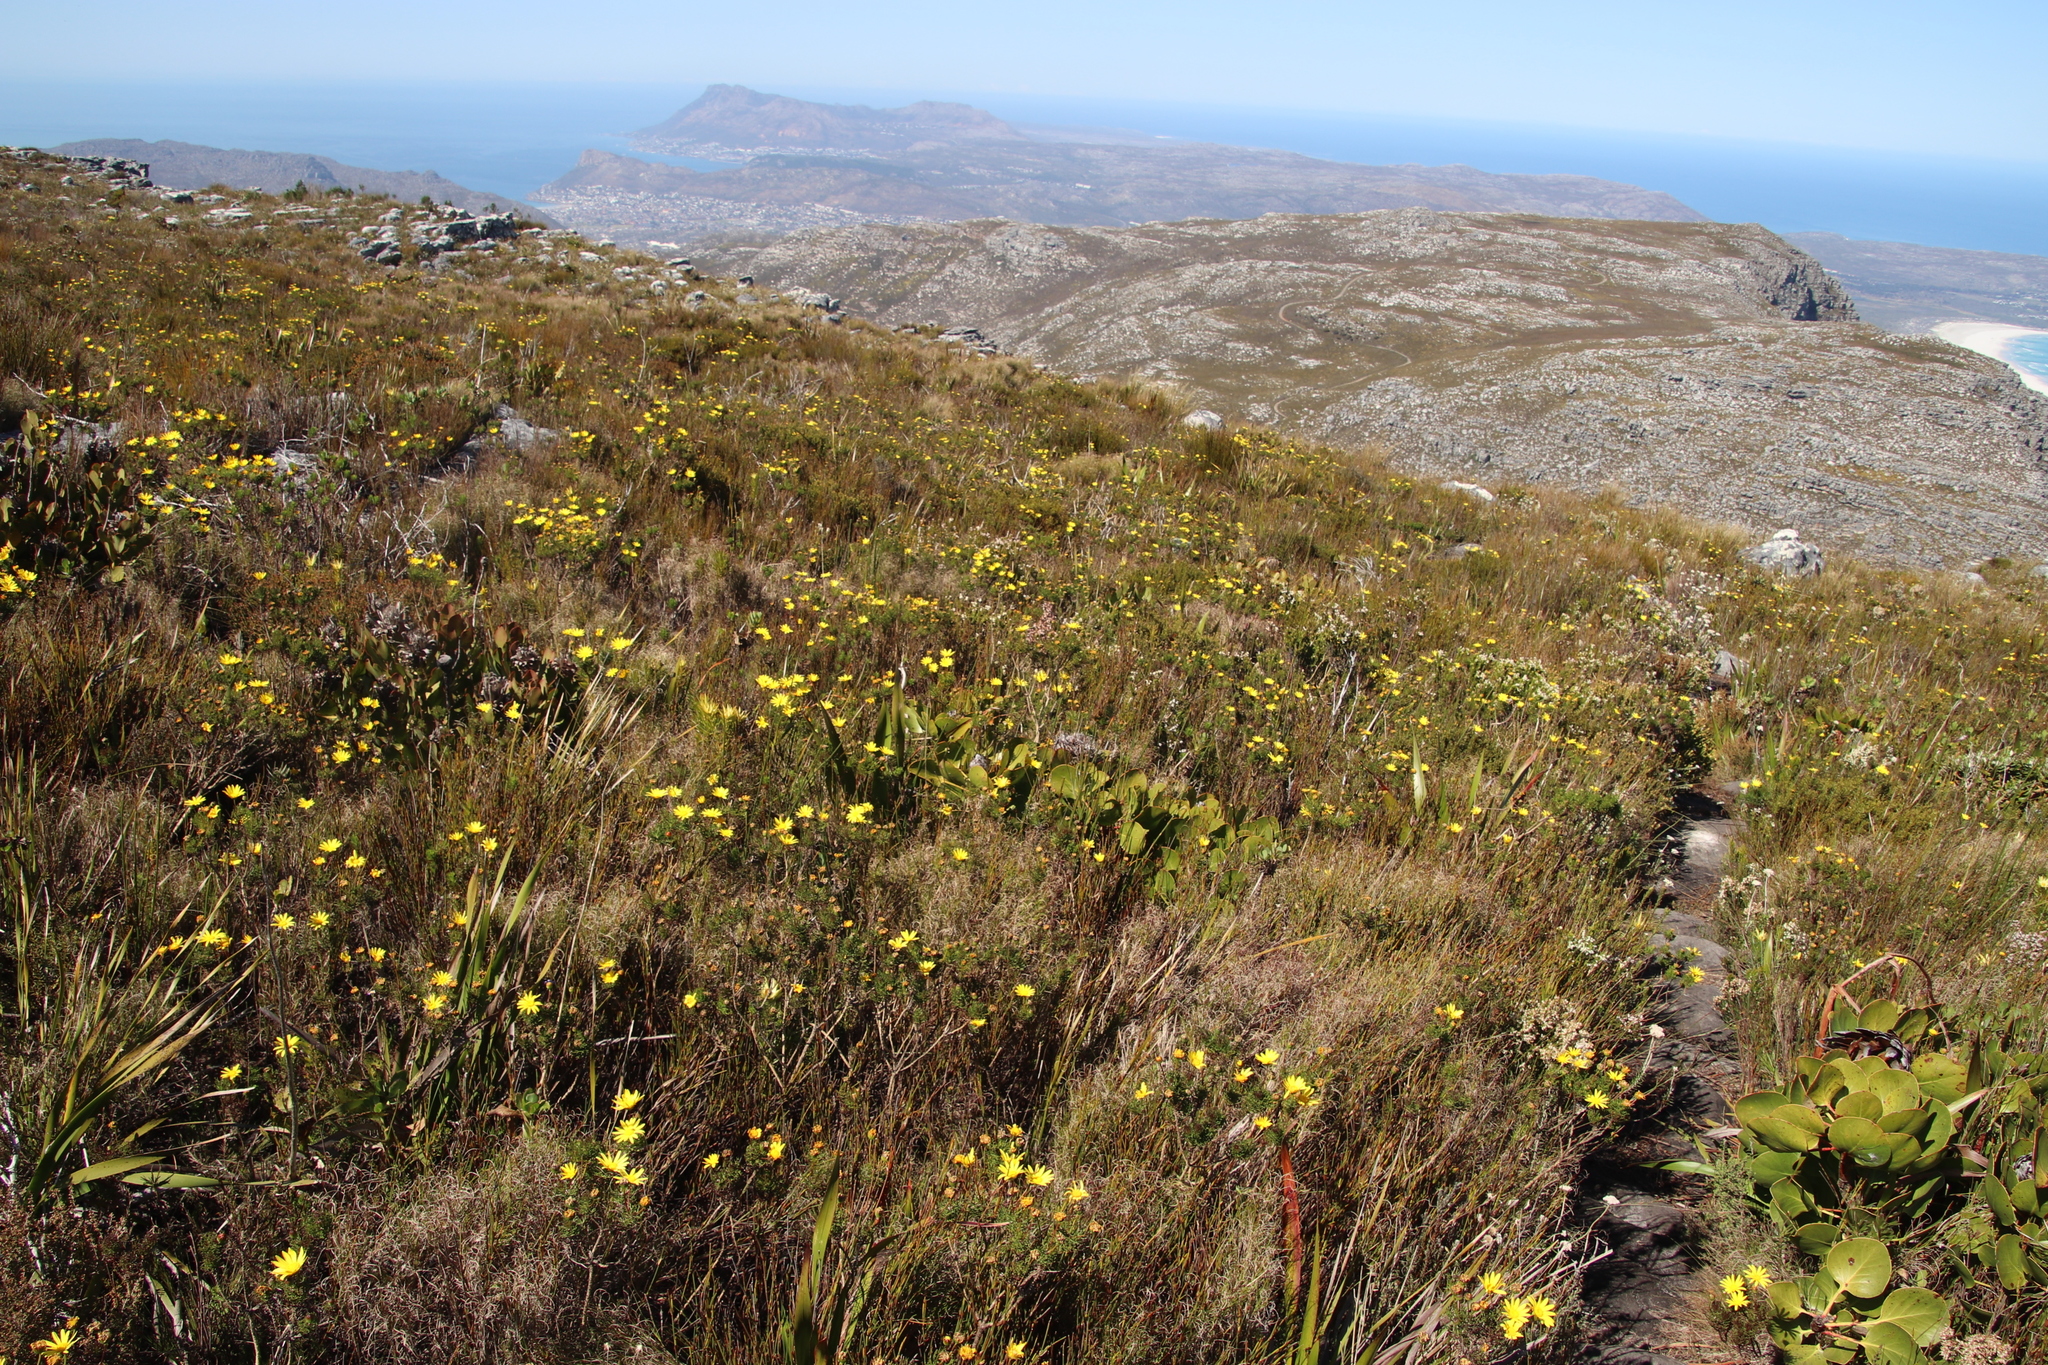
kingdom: Plantae
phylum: Tracheophyta
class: Magnoliopsida
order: Asterales
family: Asteraceae
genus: Euryops
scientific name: Euryops abrotanifolius
